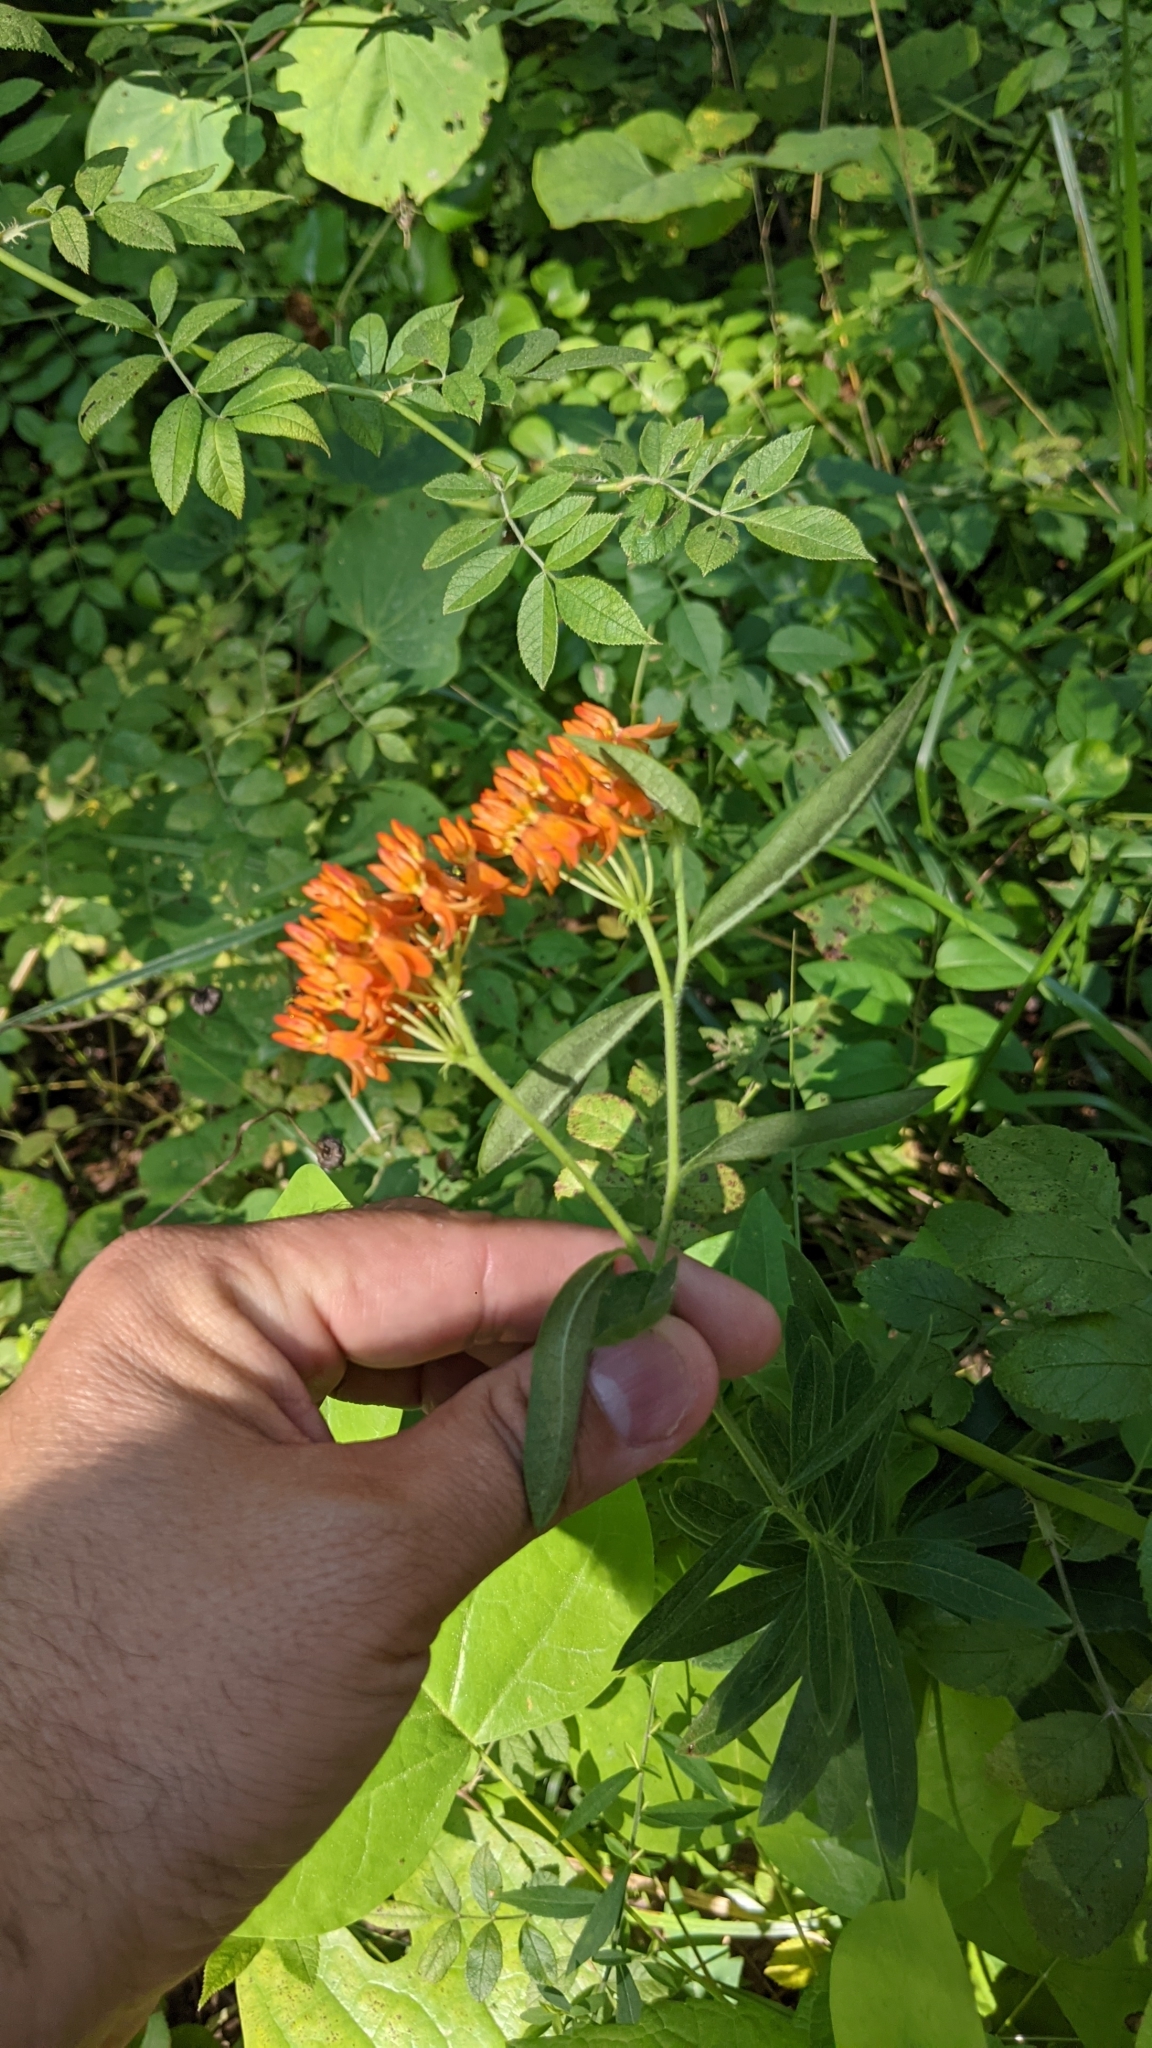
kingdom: Plantae
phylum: Tracheophyta
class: Magnoliopsida
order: Gentianales
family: Apocynaceae
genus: Asclepias
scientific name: Asclepias tuberosa
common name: Butterfly milkweed
